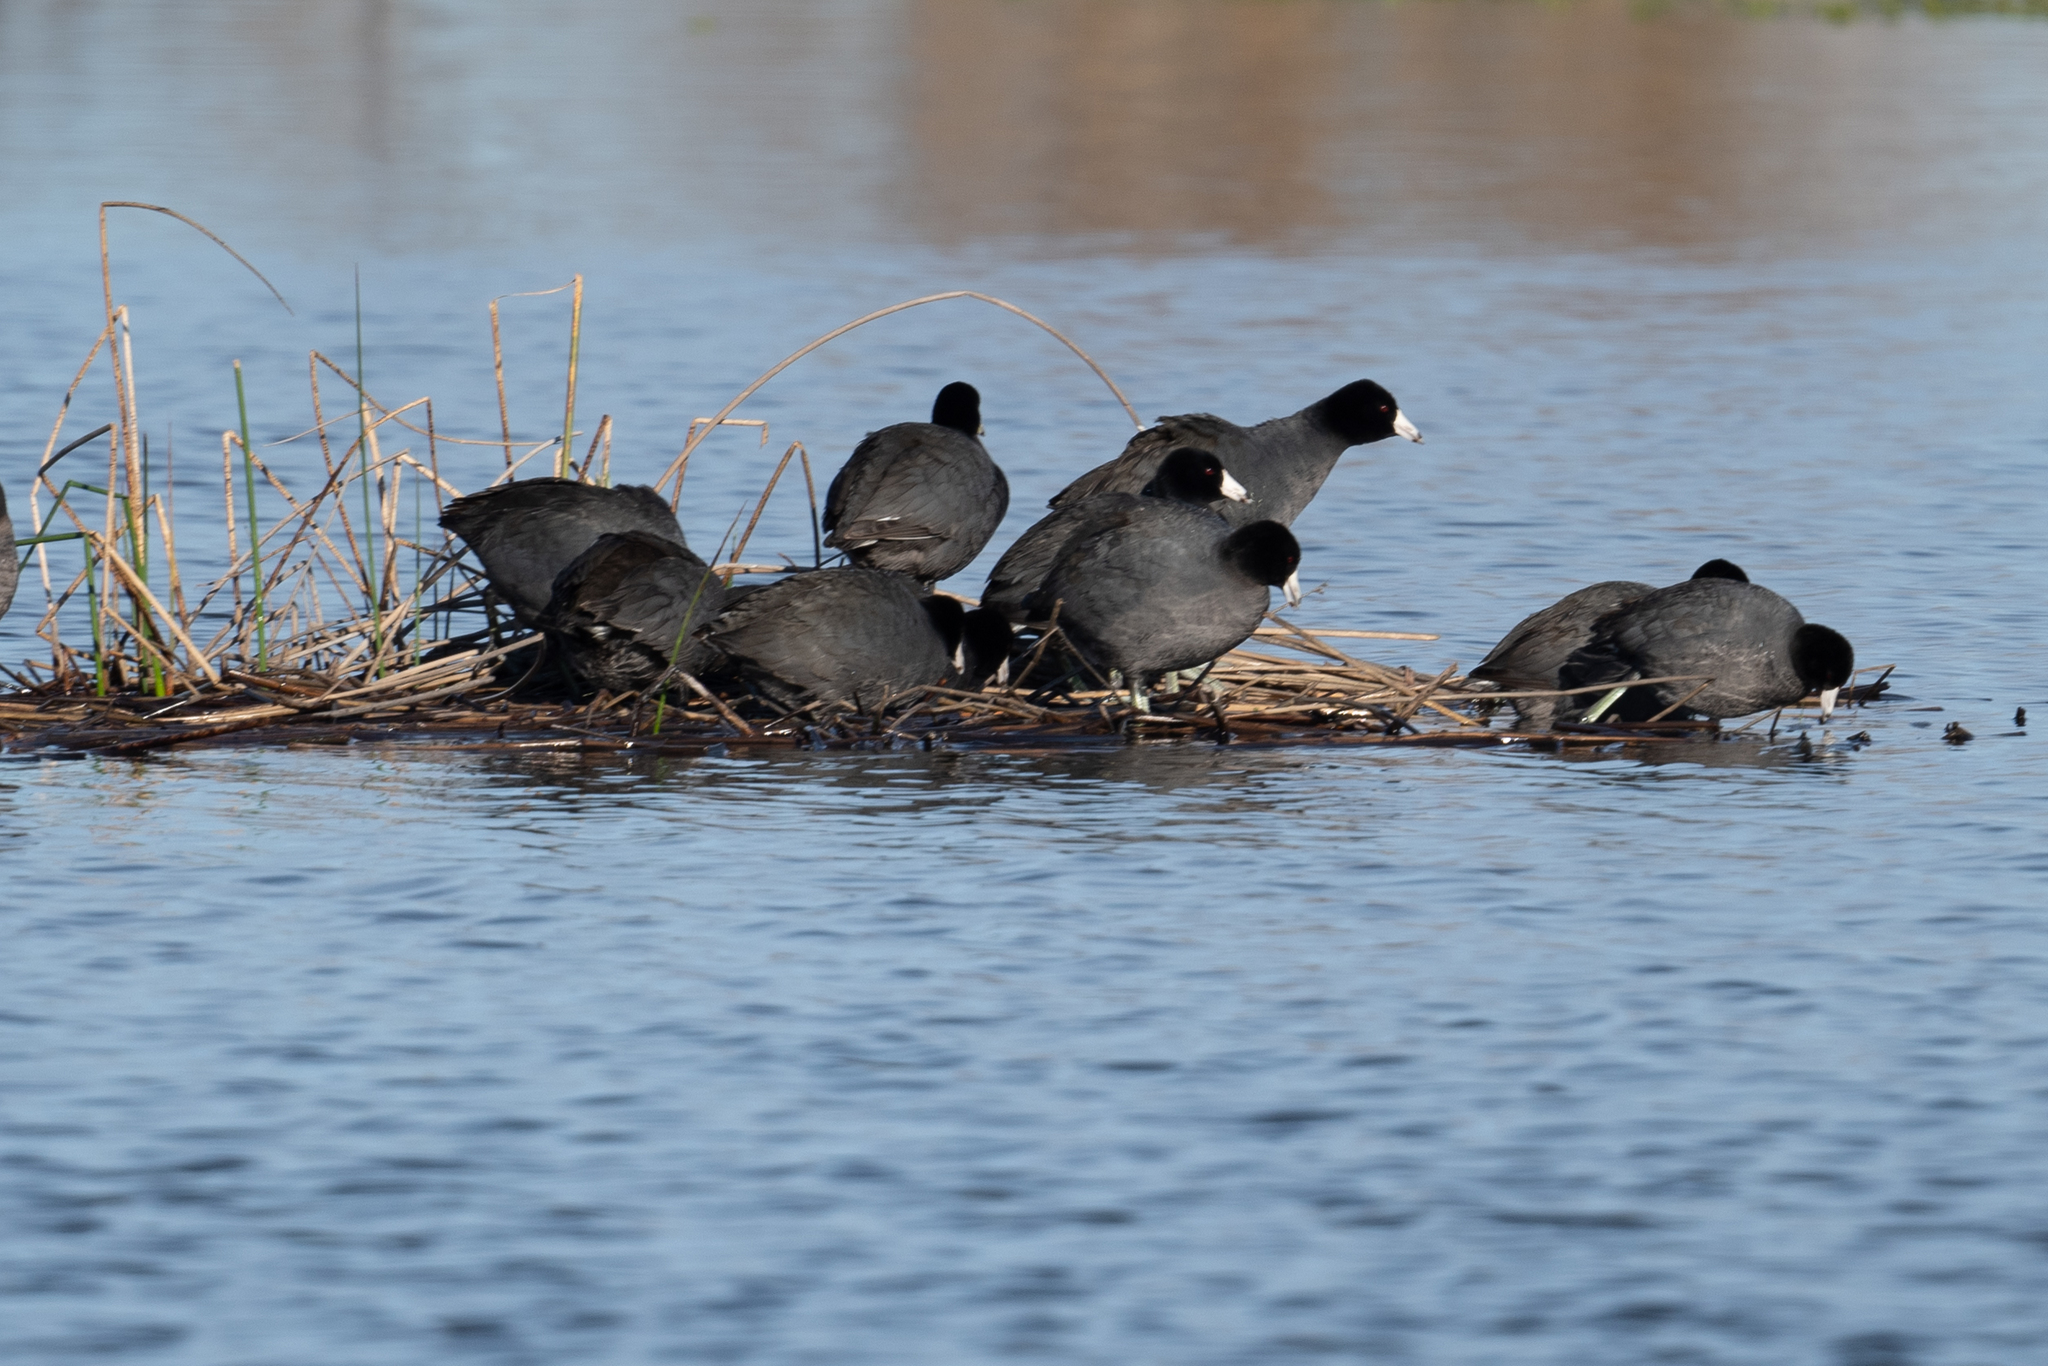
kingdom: Animalia
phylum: Chordata
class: Aves
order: Gruiformes
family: Rallidae
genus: Fulica
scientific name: Fulica americana
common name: American coot
